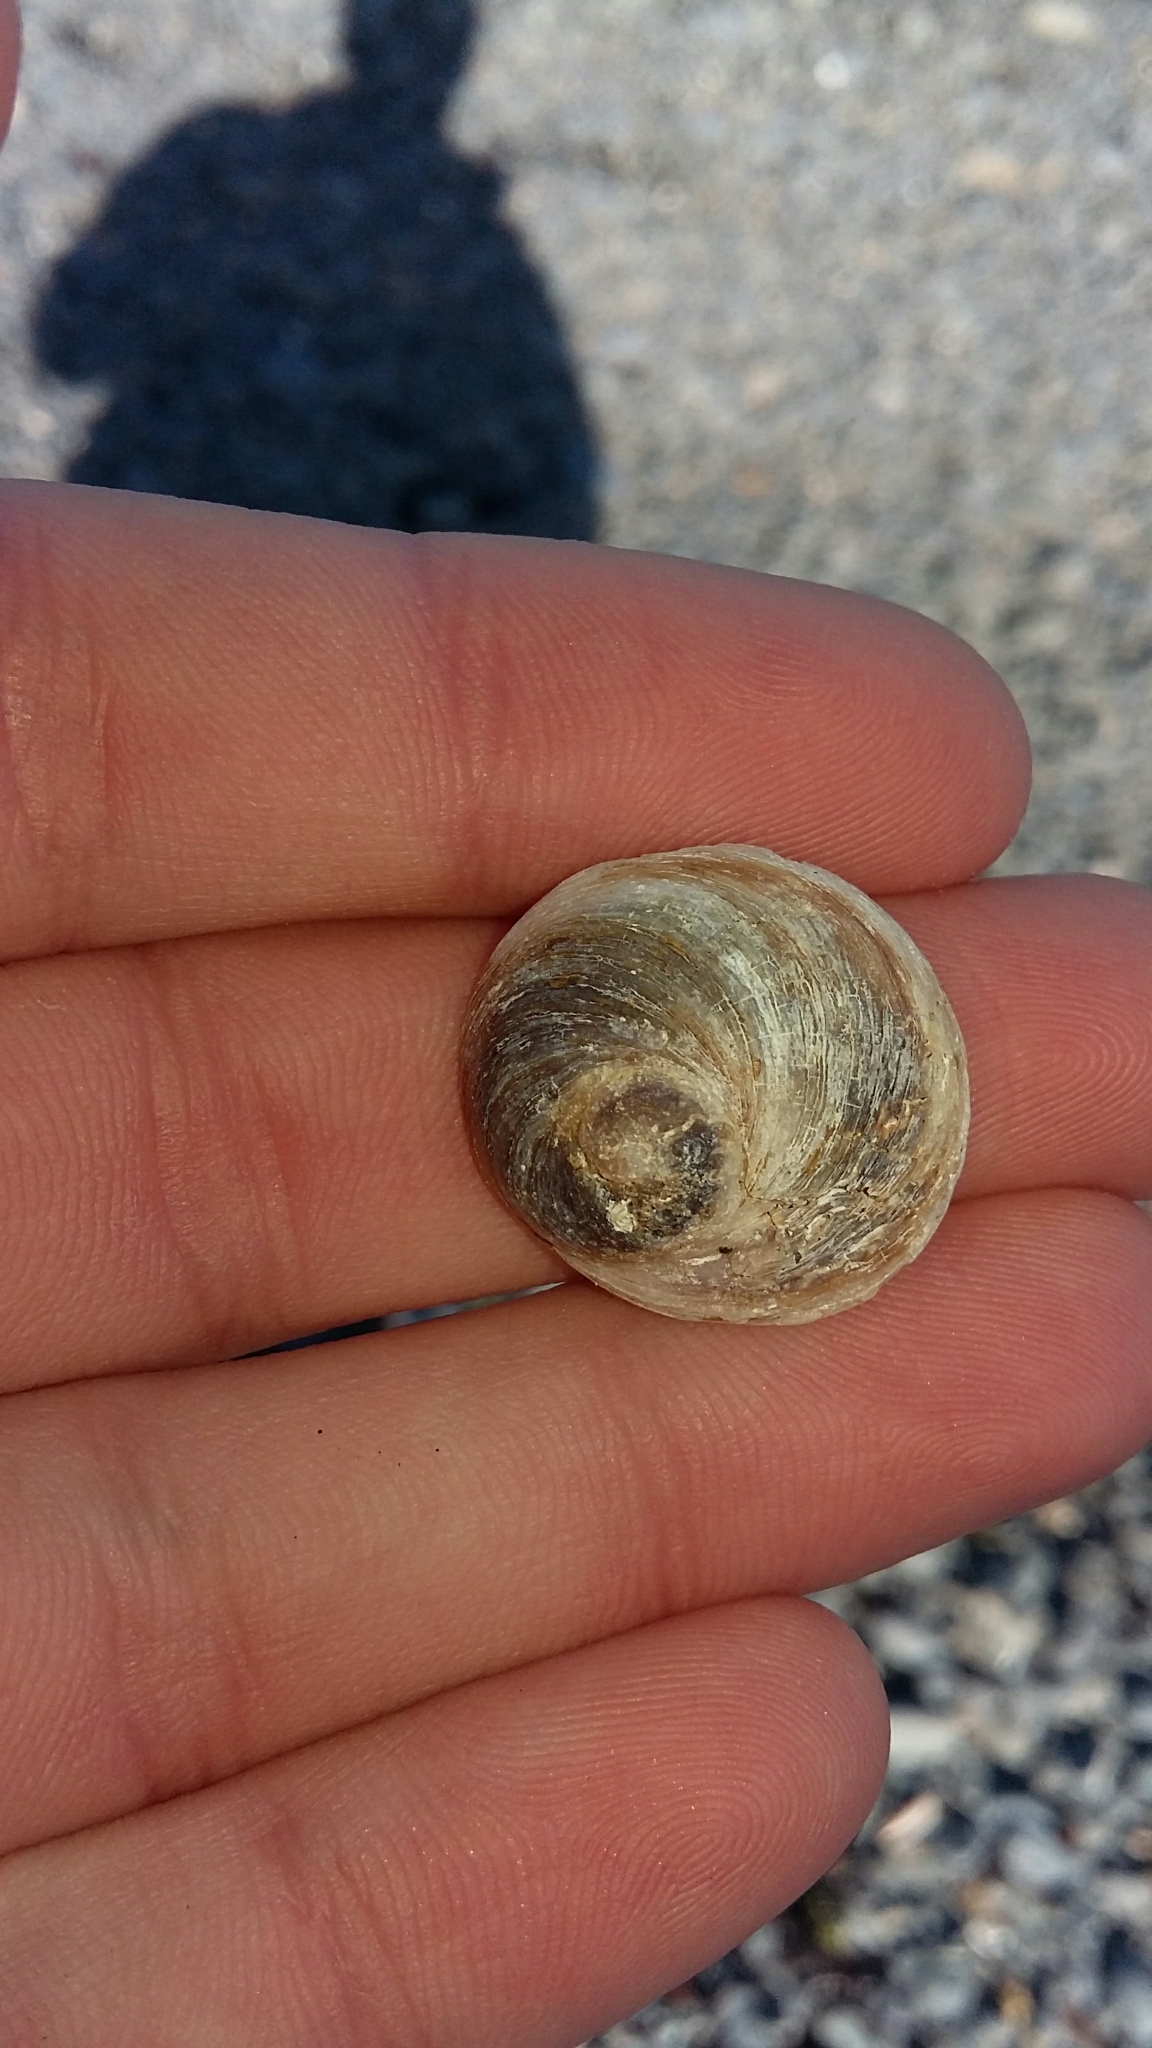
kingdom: Animalia
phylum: Mollusca
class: Gastropoda
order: Littorinimorpha
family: Calyptraeidae
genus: Sigapatella
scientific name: Sigapatella novaezelandiae
